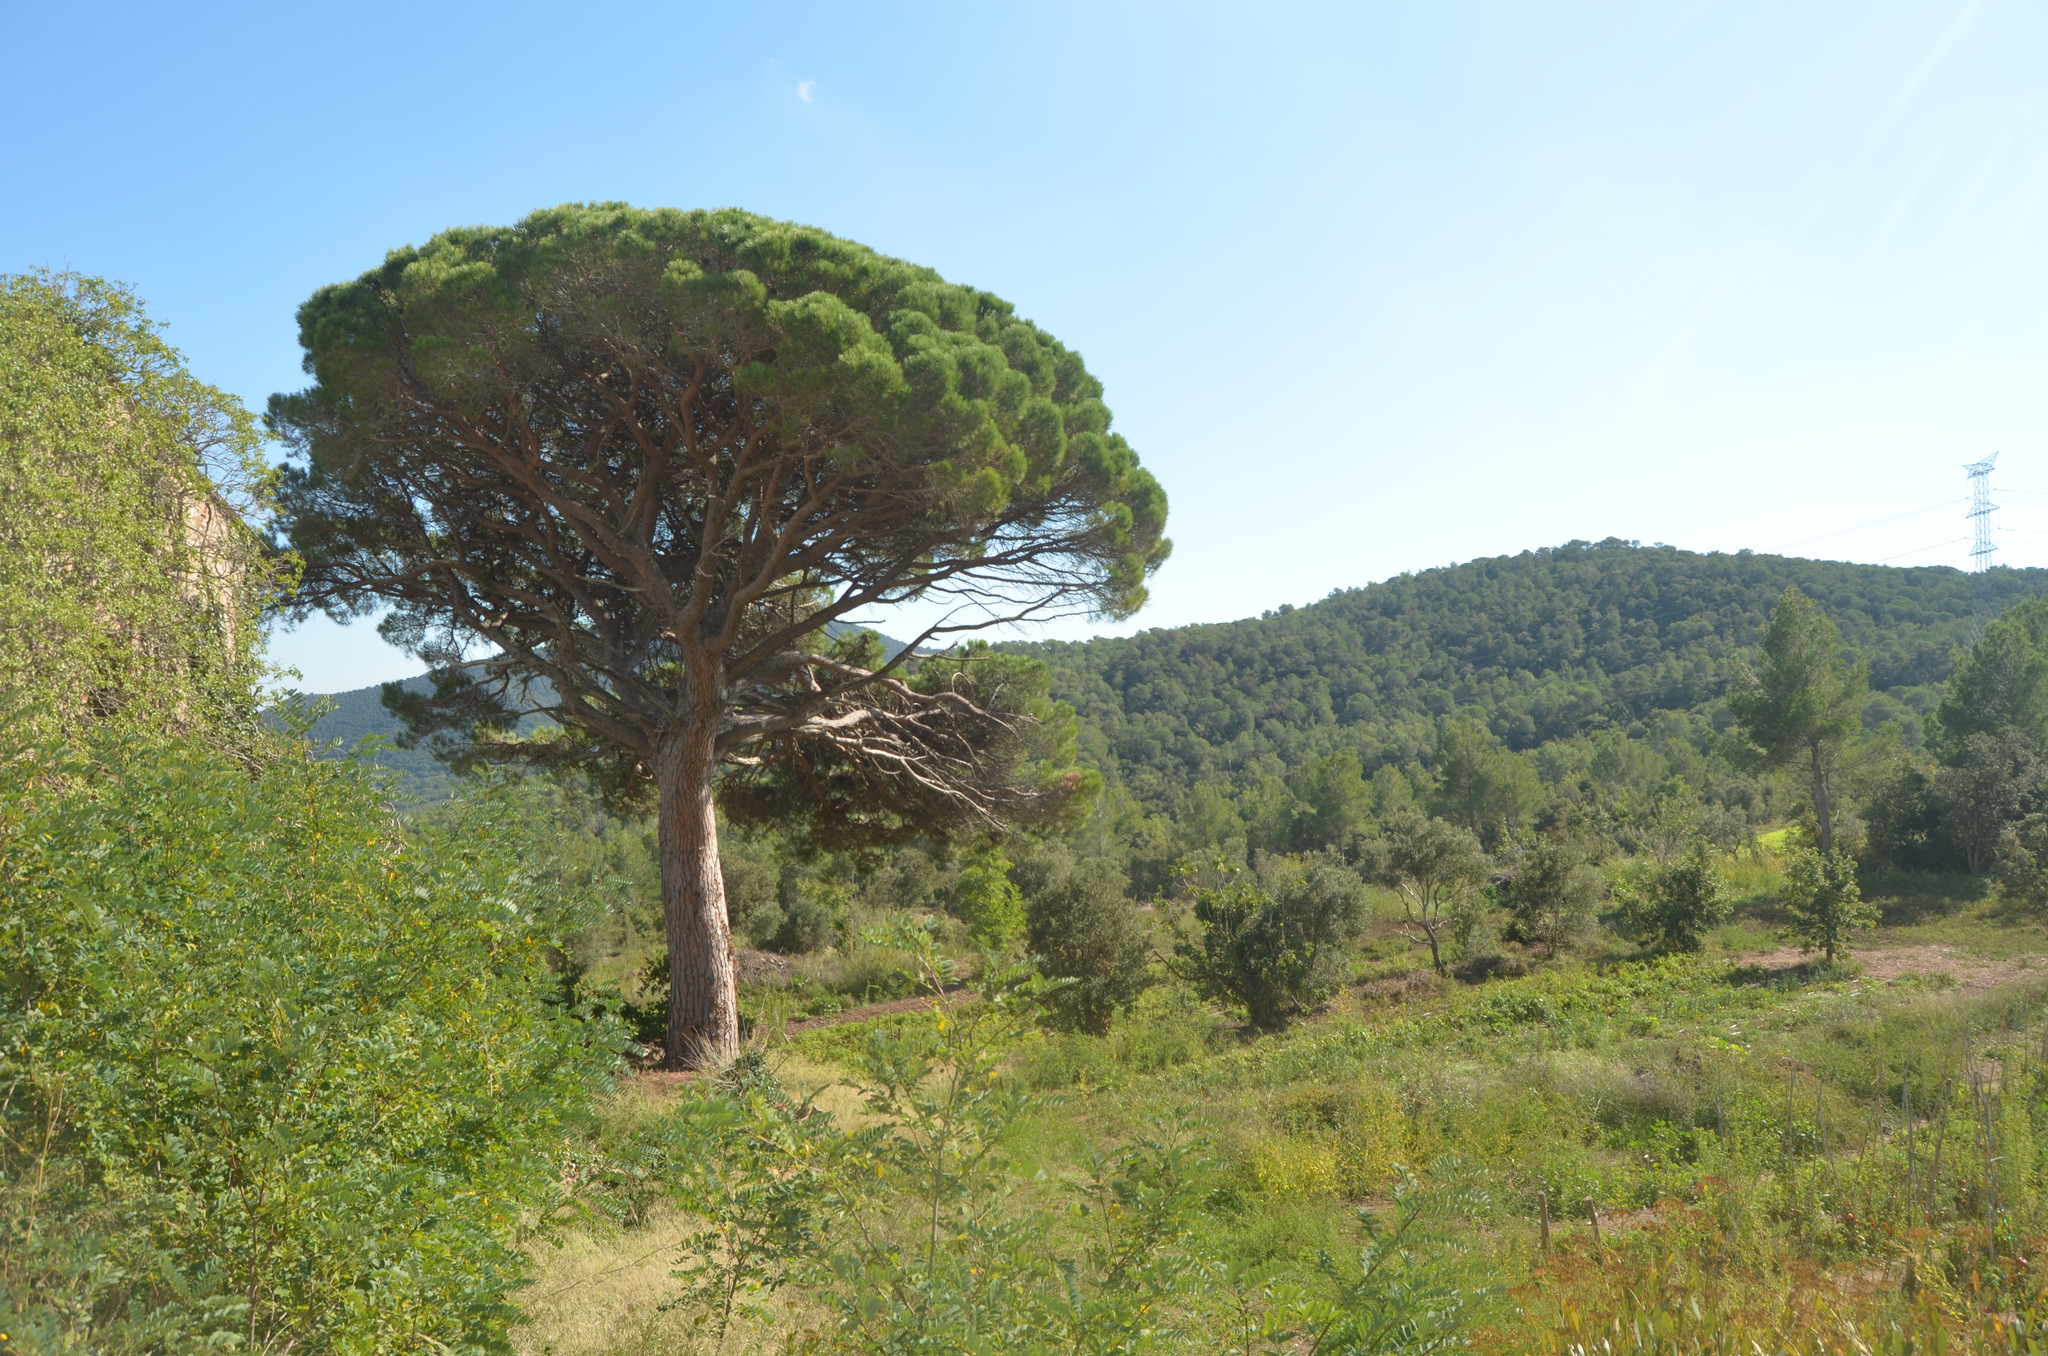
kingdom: Plantae
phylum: Tracheophyta
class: Pinopsida
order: Pinales
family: Pinaceae
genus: Pinus
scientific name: Pinus pinea
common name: Italian stone pine
